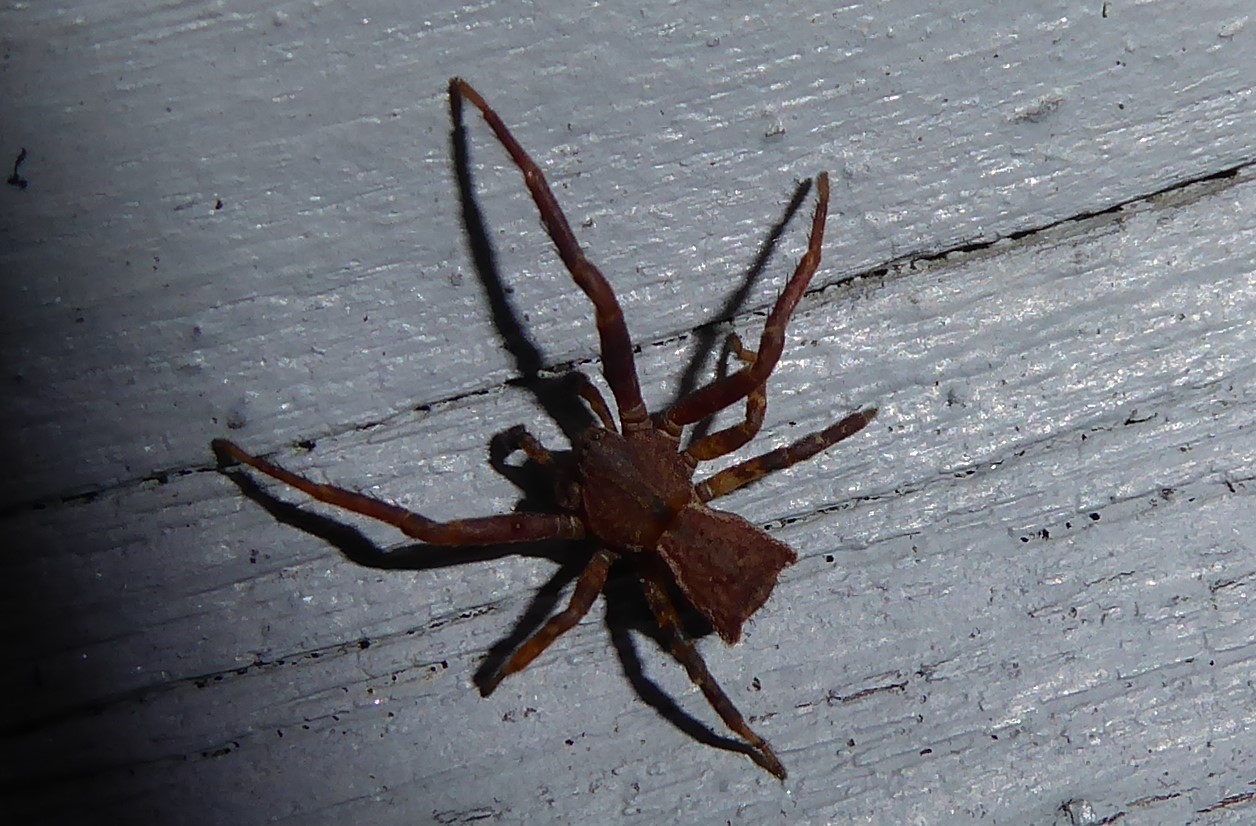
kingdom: Animalia
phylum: Arthropoda
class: Arachnida
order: Araneae
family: Thomisidae
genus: Sidymella
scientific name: Sidymella angularis
